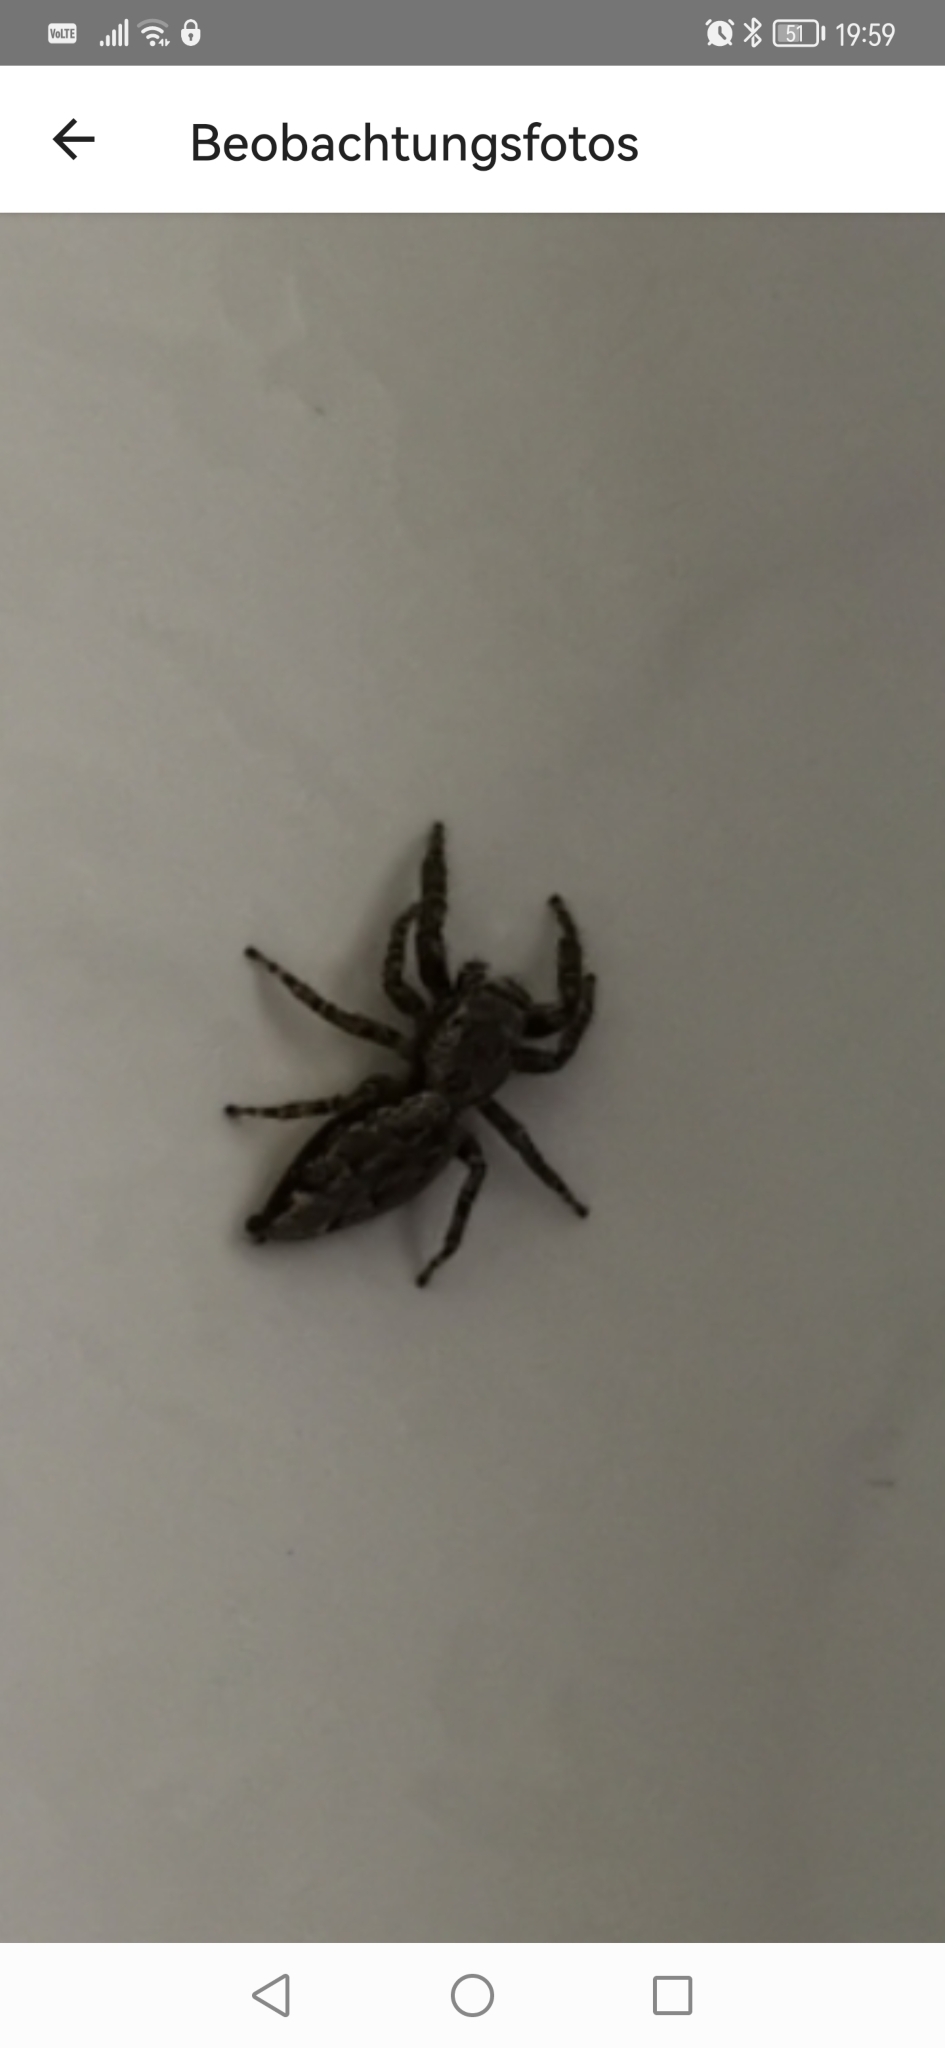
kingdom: Animalia
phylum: Arthropoda
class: Arachnida
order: Araneae
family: Salticidae
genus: Marpissa
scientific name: Marpissa muscosa
